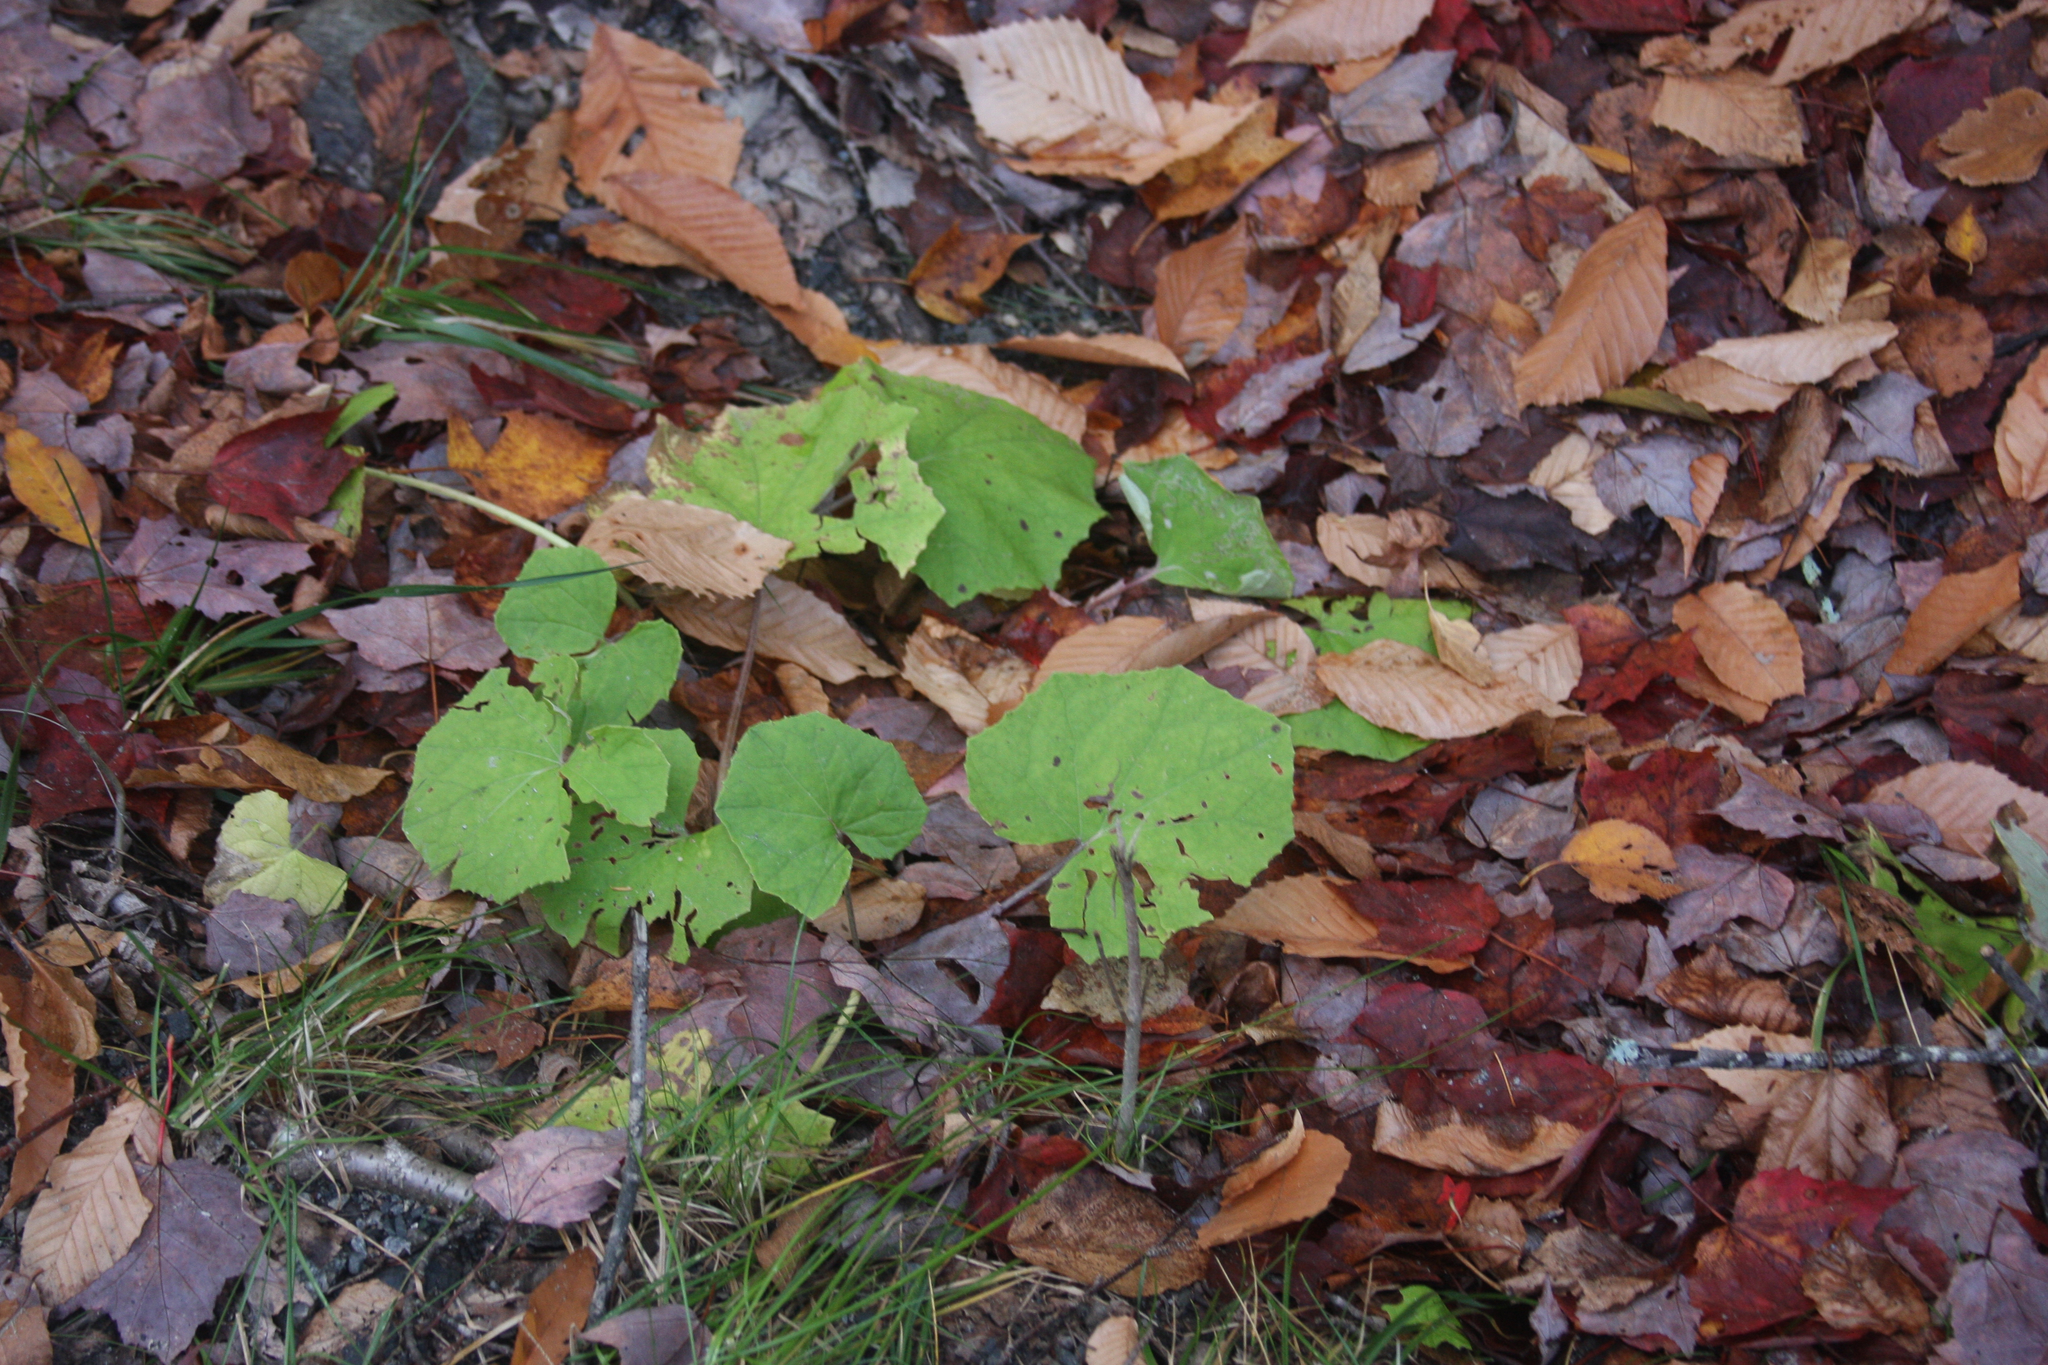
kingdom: Plantae
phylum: Tracheophyta
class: Magnoliopsida
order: Asterales
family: Asteraceae
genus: Tussilago
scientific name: Tussilago farfara
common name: Coltsfoot
